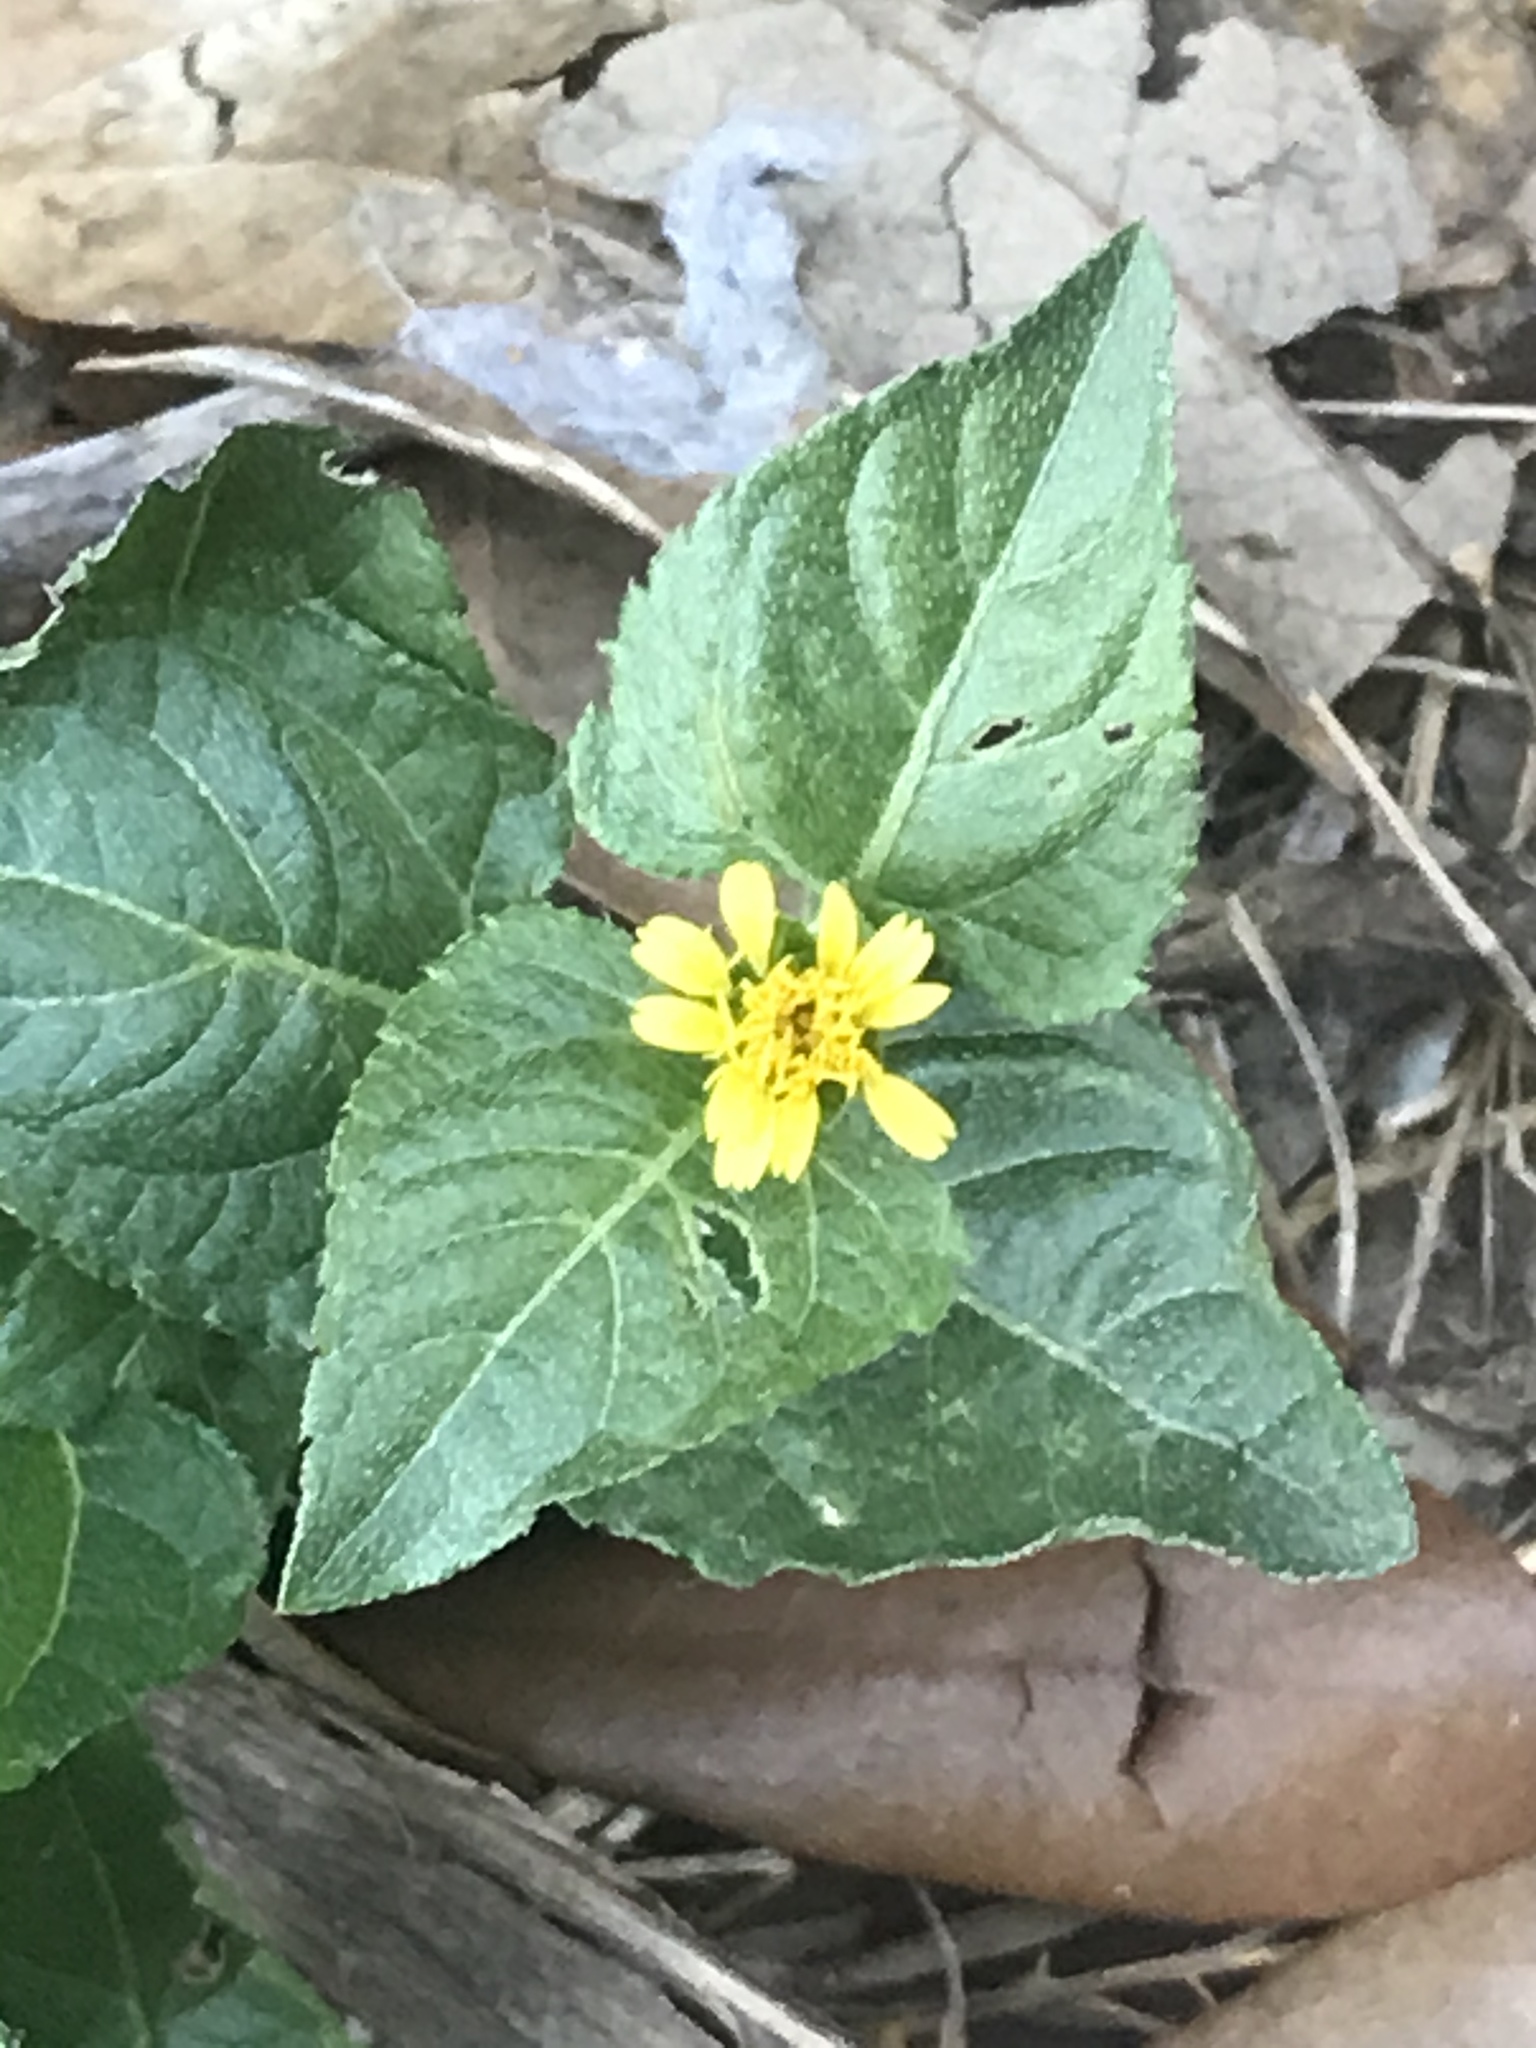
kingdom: Plantae
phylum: Tracheophyta
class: Magnoliopsida
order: Asterales
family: Asteraceae
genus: Calyptocarpus
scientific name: Calyptocarpus vialis
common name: Straggler daisy
